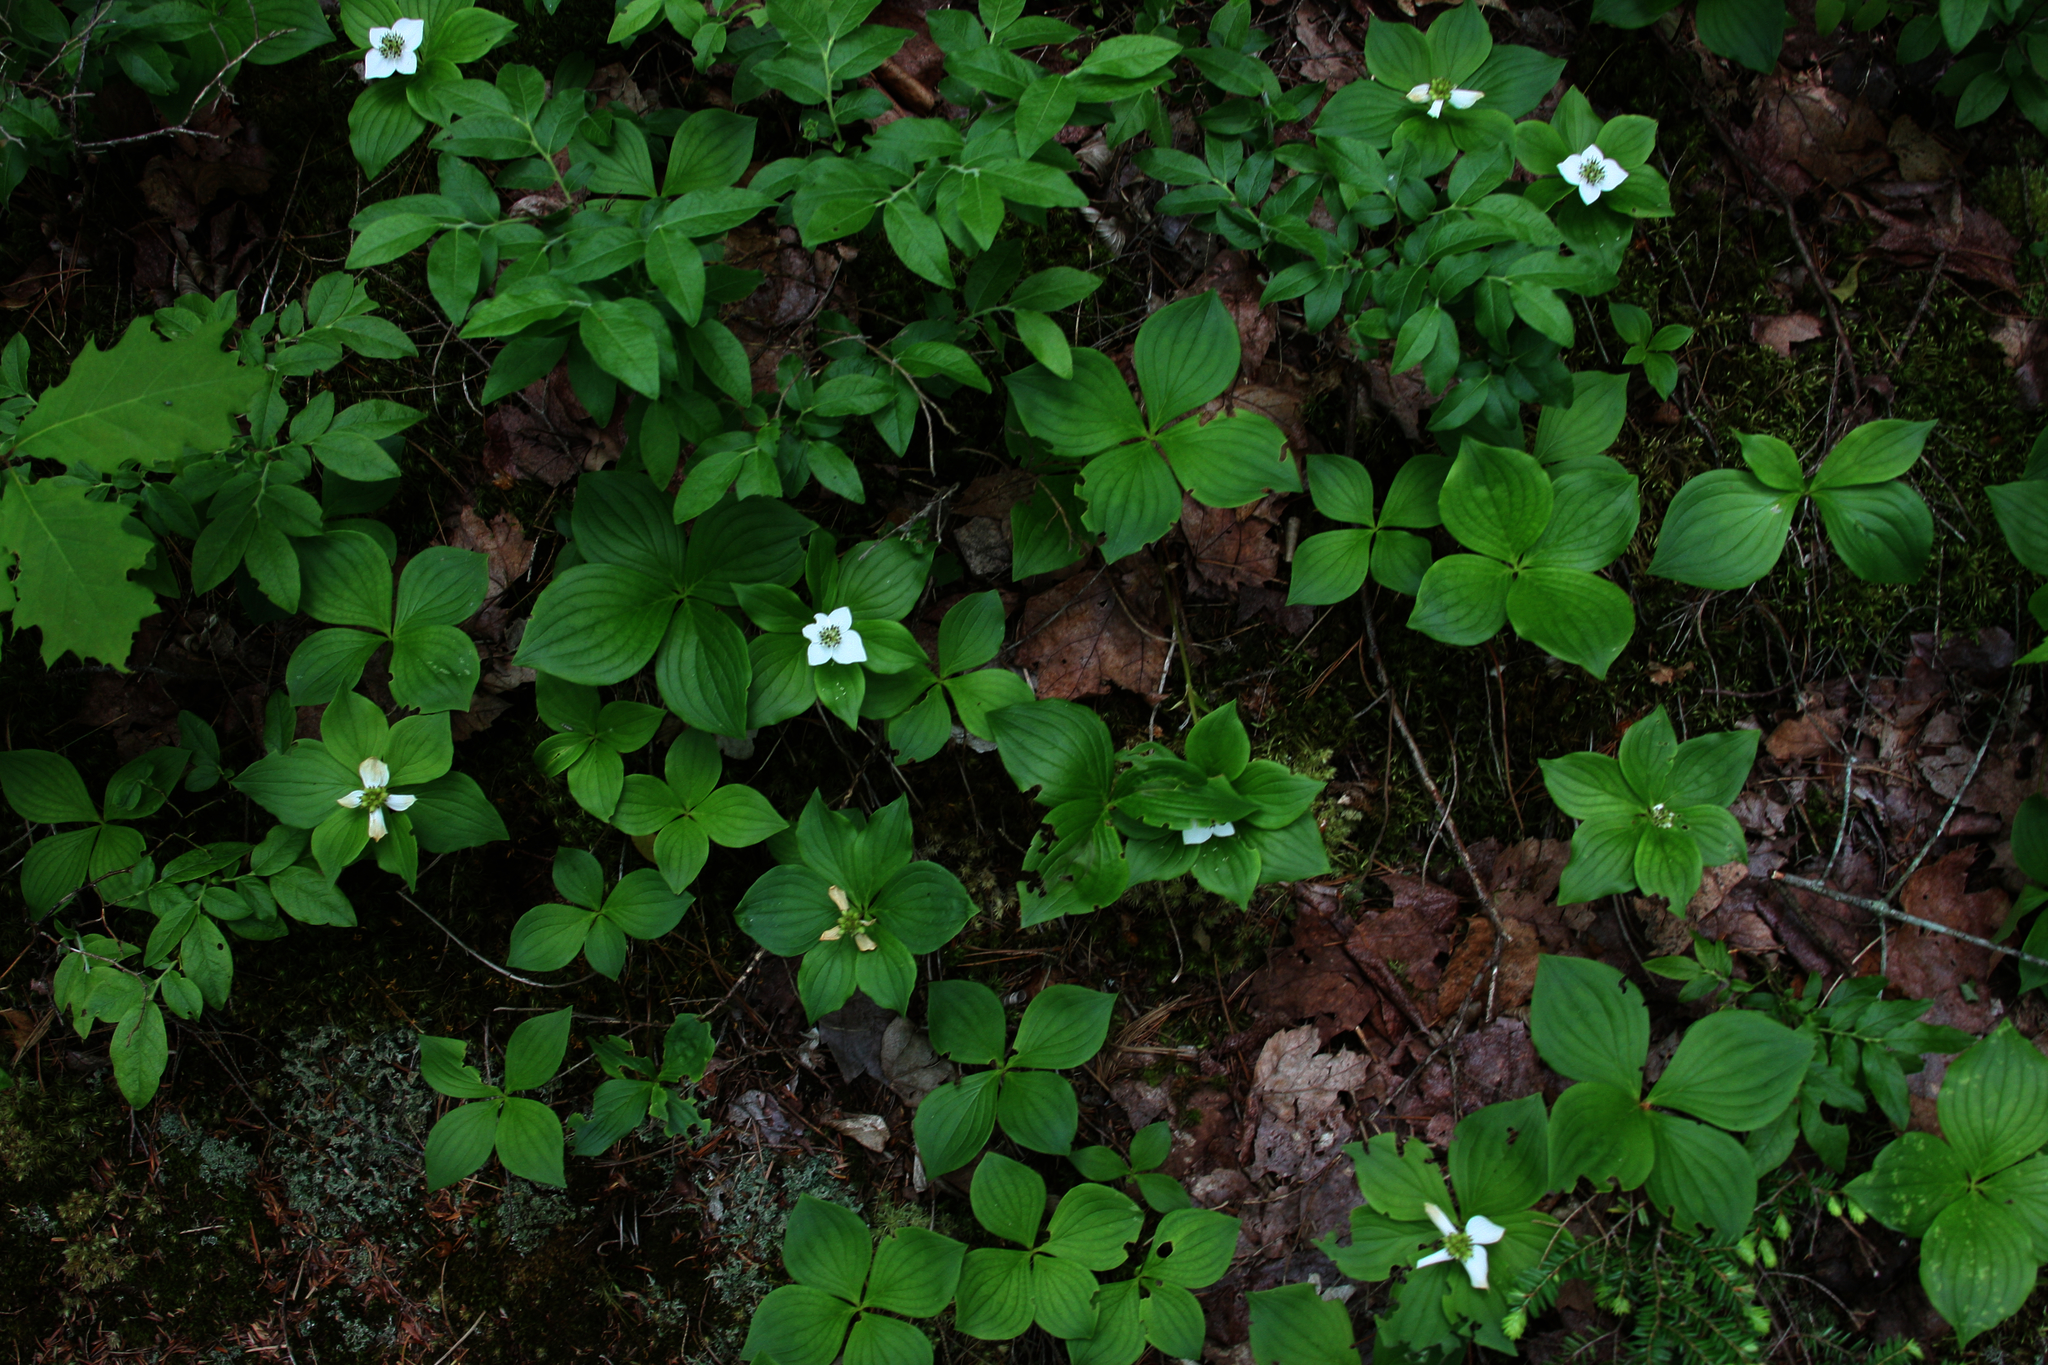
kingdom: Plantae
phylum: Tracheophyta
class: Magnoliopsida
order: Cornales
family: Cornaceae
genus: Cornus
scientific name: Cornus canadensis
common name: Creeping dogwood
